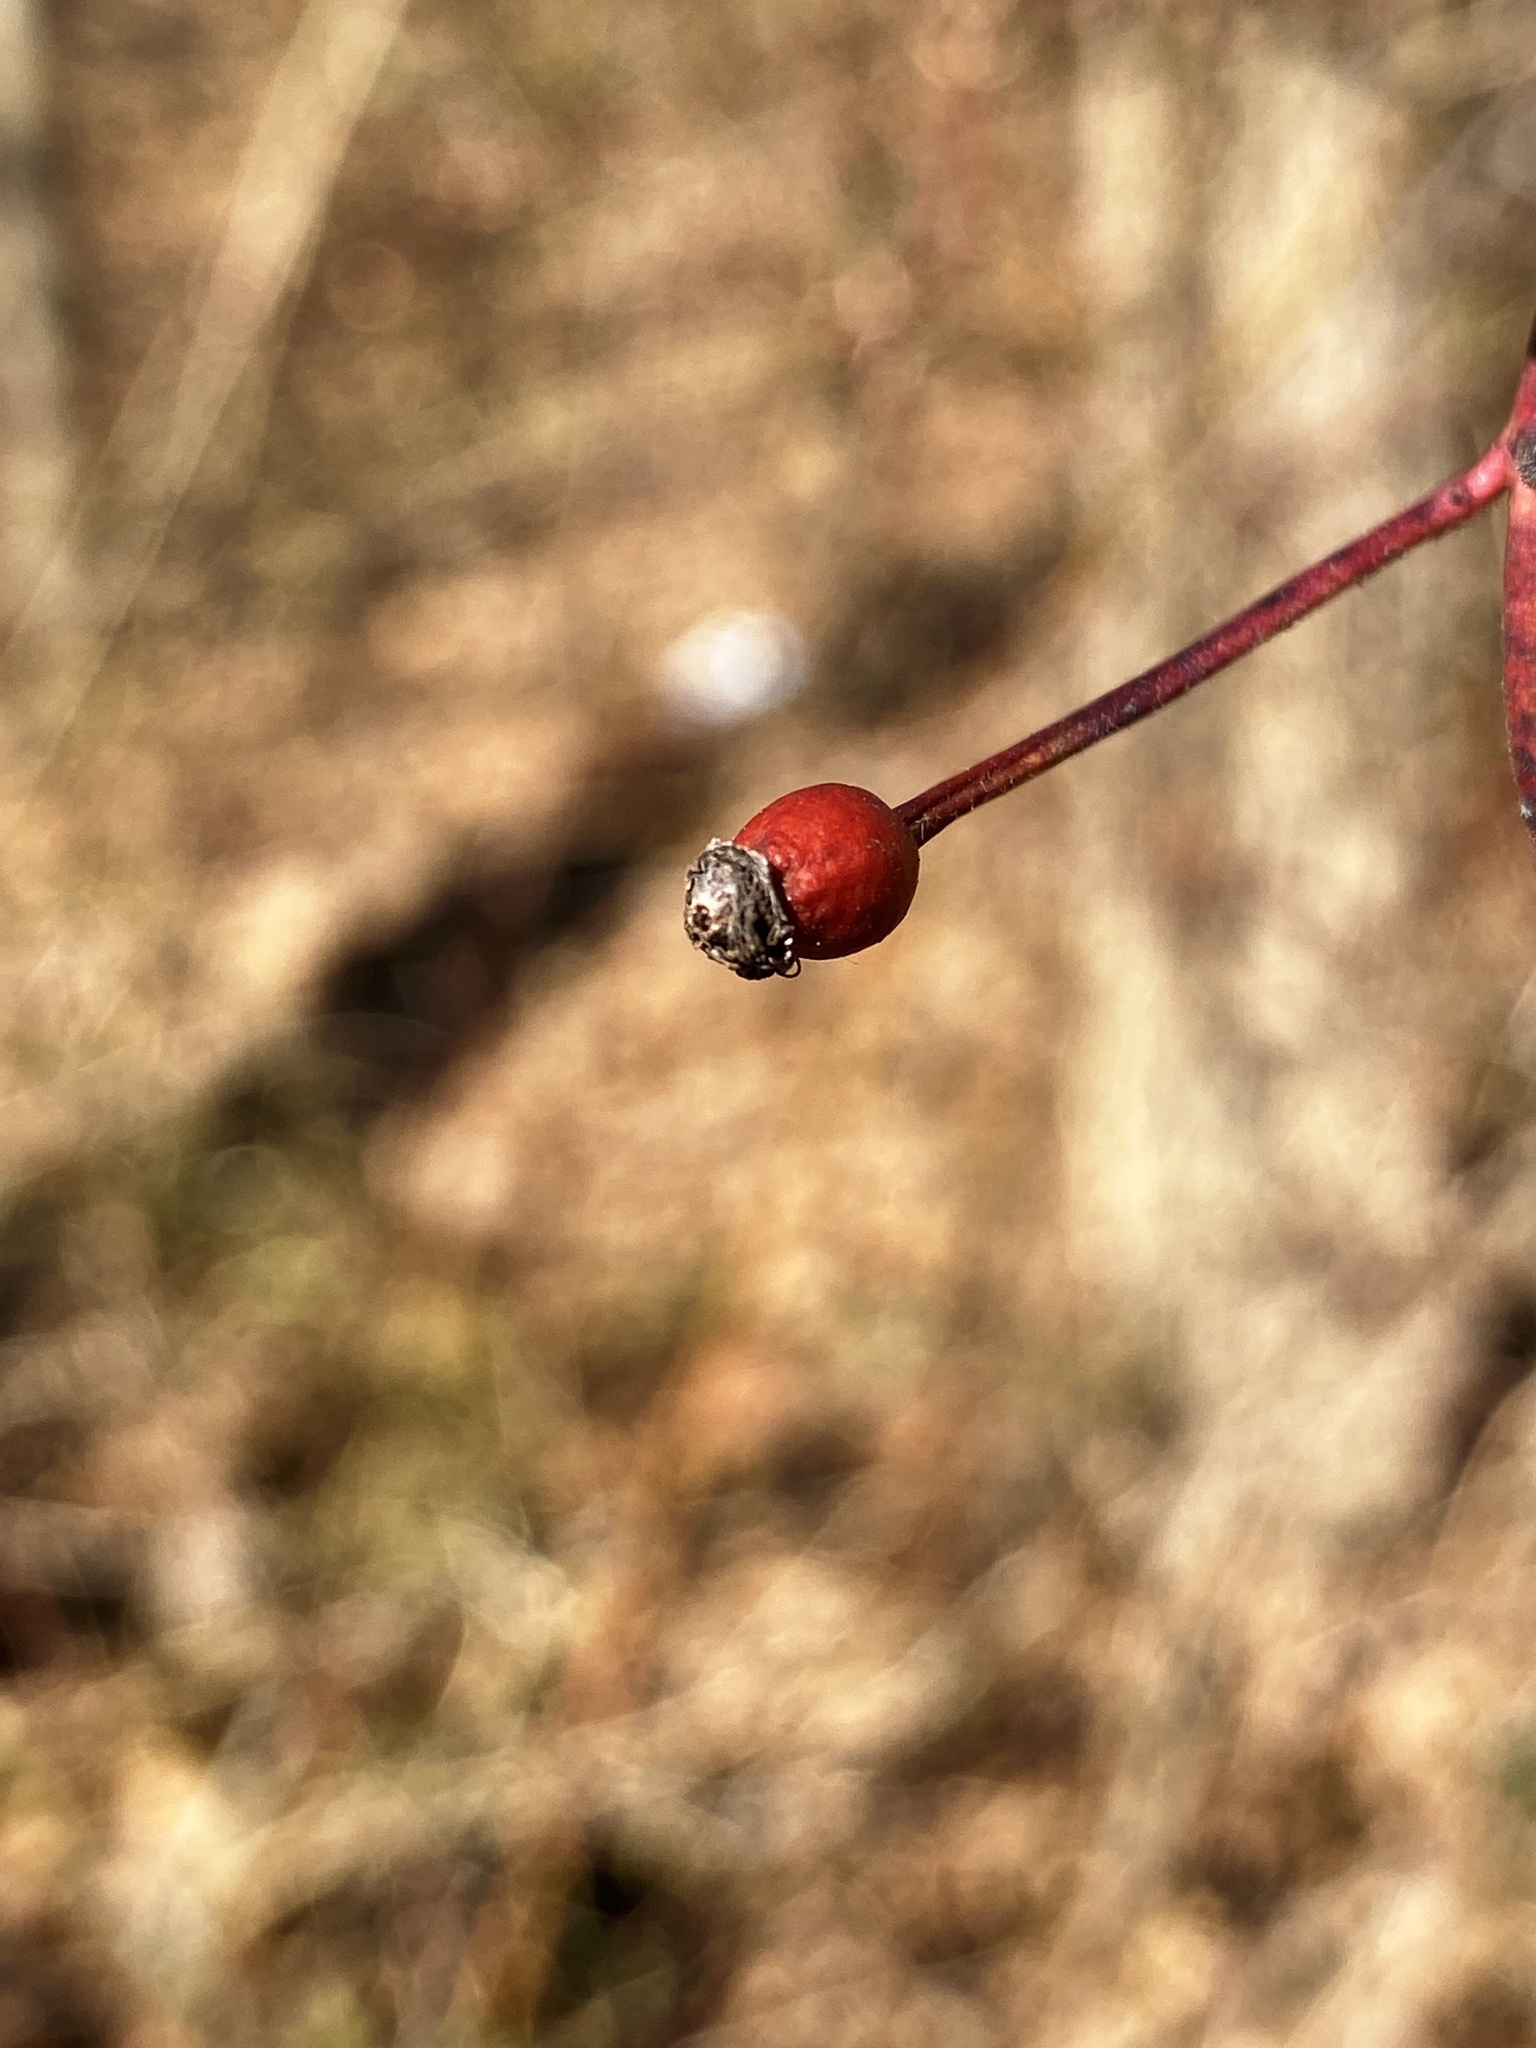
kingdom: Plantae
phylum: Tracheophyta
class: Magnoliopsida
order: Rosales
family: Rosaceae
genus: Rosa
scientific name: Rosa multiflora
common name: Multiflora rose
